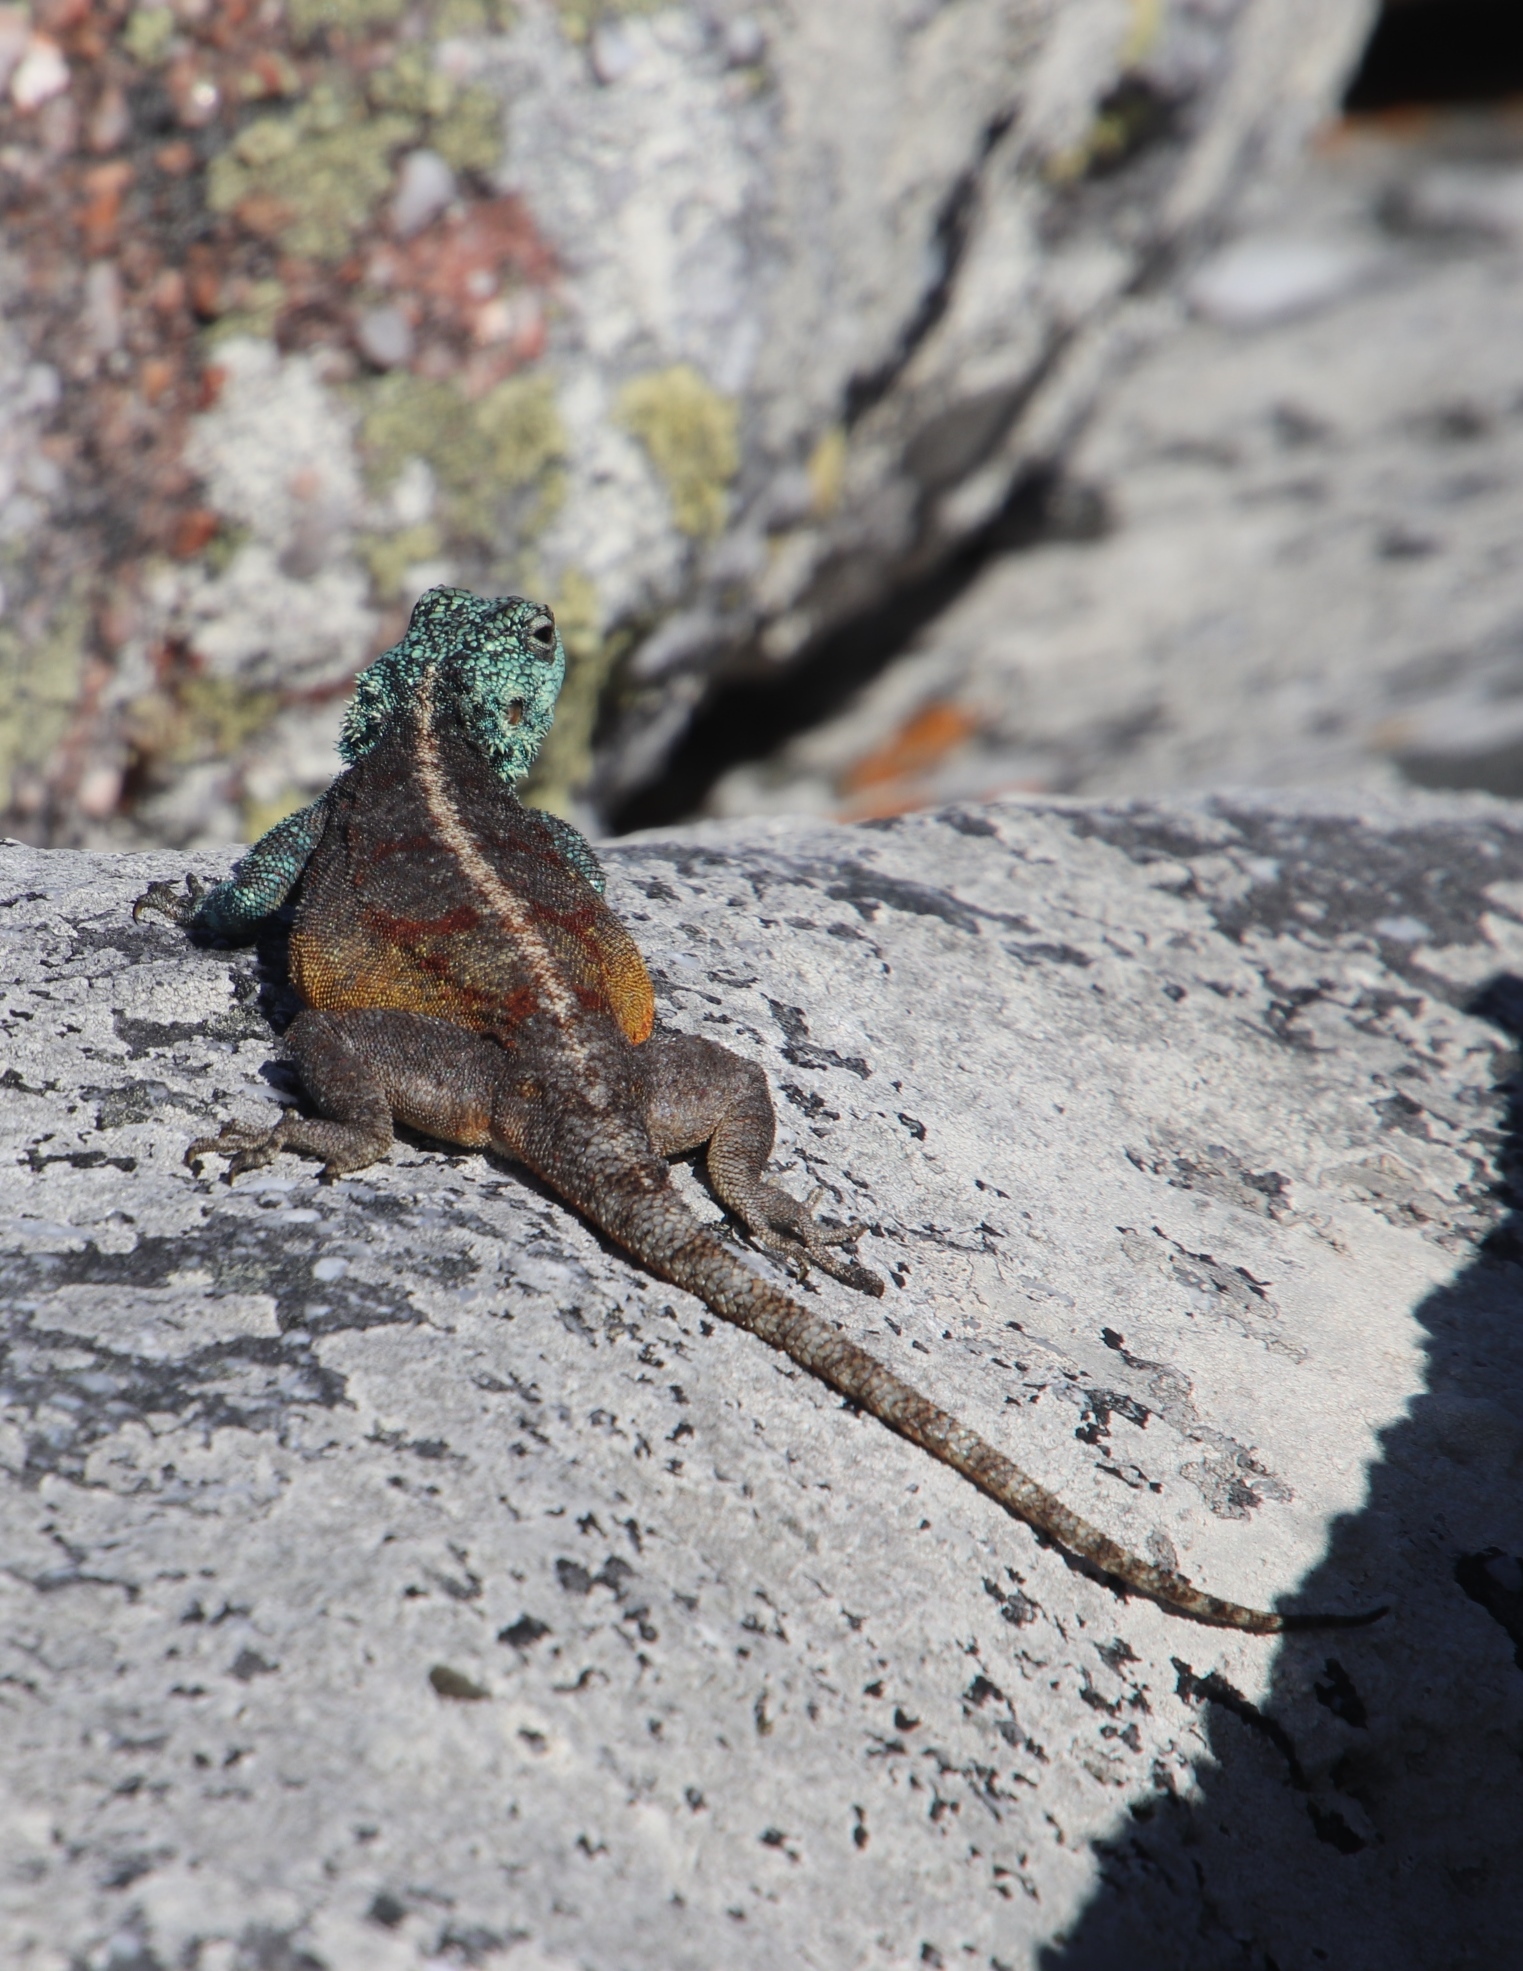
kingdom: Animalia
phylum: Chordata
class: Squamata
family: Agamidae
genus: Agama
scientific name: Agama atra
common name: Southern african rock agama
